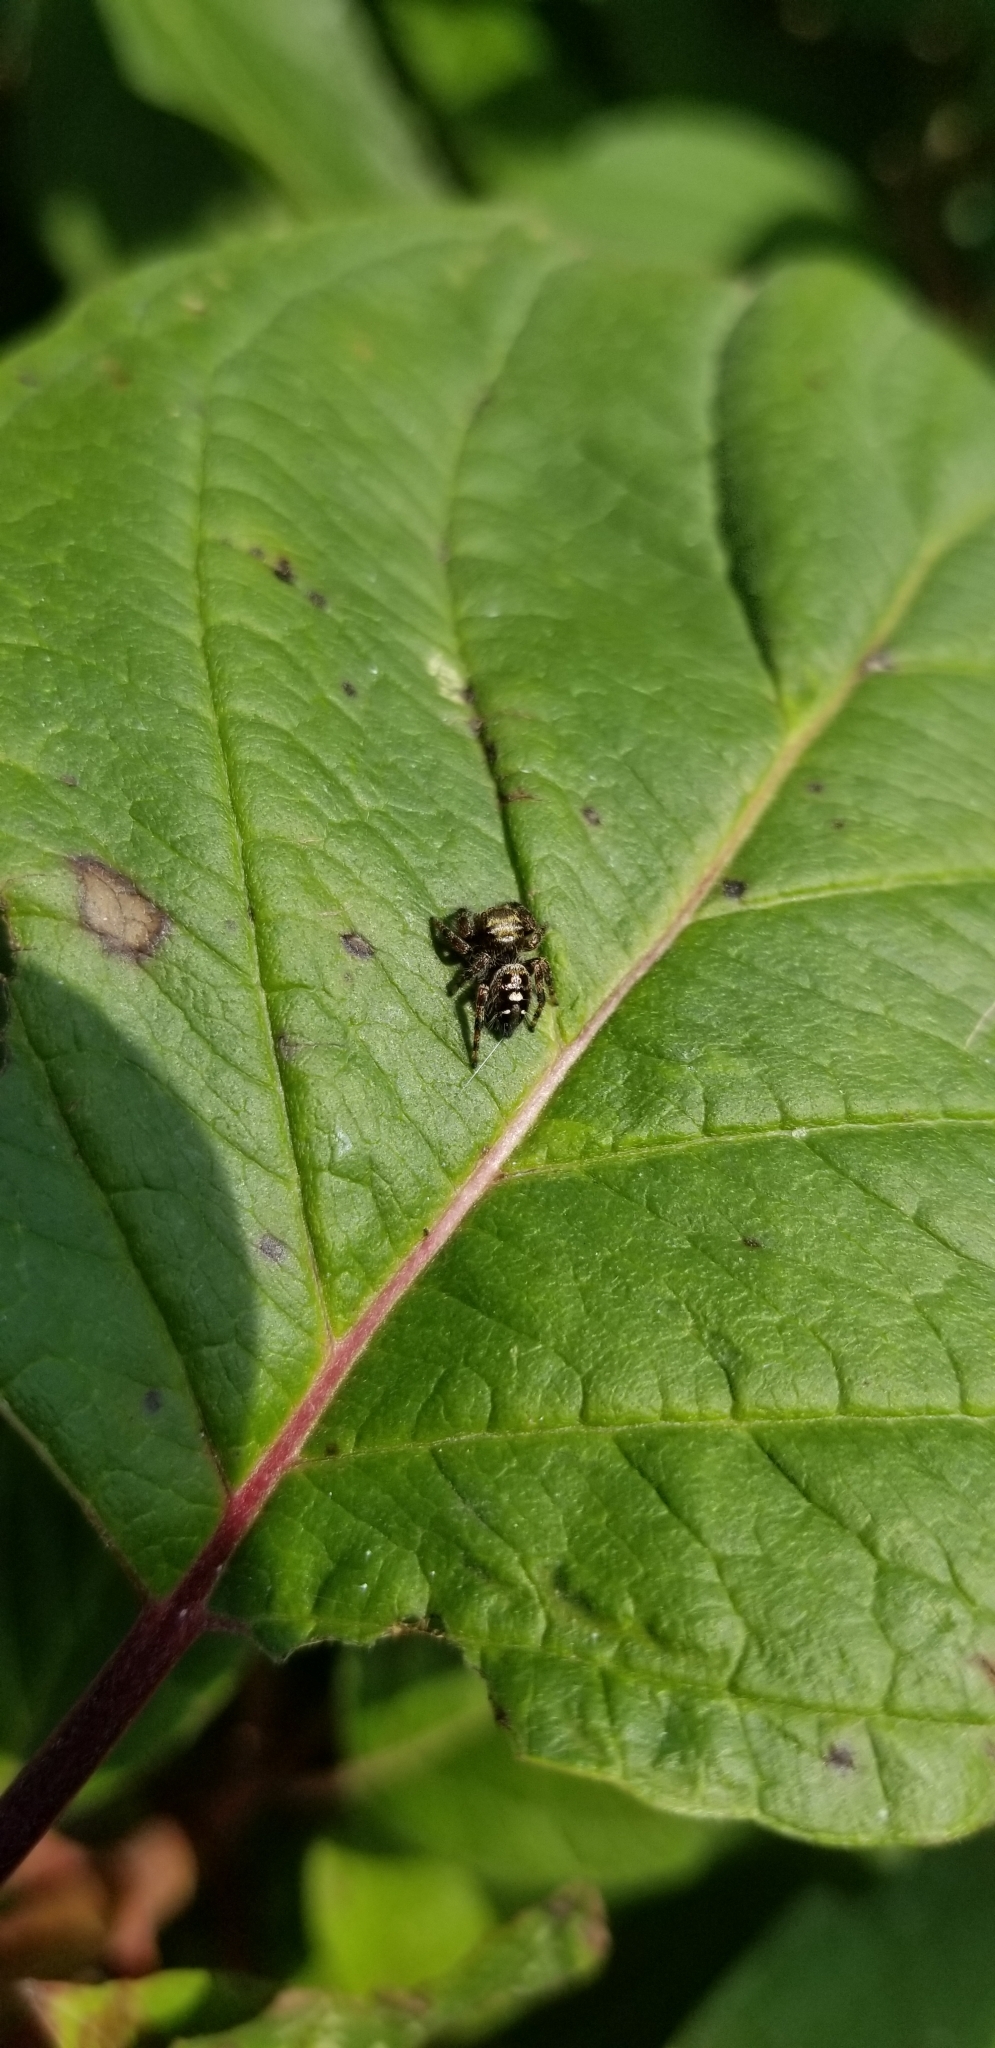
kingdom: Animalia
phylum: Arthropoda
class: Arachnida
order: Araneae
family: Salticidae
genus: Phidippus
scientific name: Phidippus audax
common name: Bold jumper
